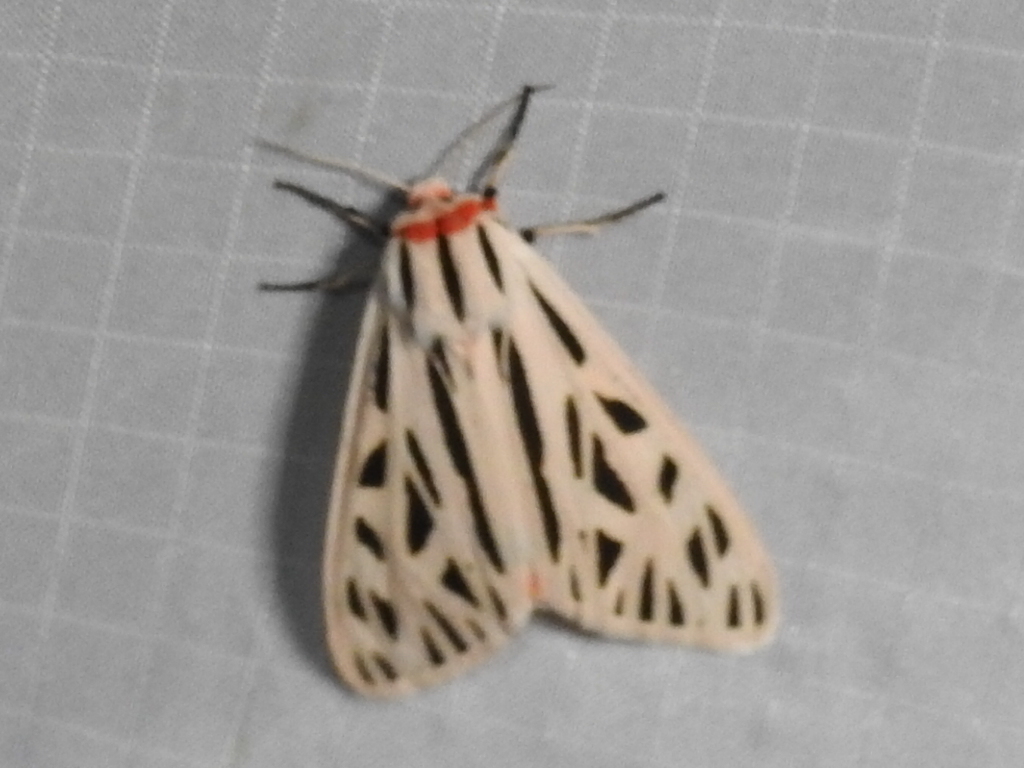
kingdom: Animalia
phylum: Arthropoda
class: Insecta
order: Lepidoptera
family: Erebidae
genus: Apantesis
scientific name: Apantesis arge
